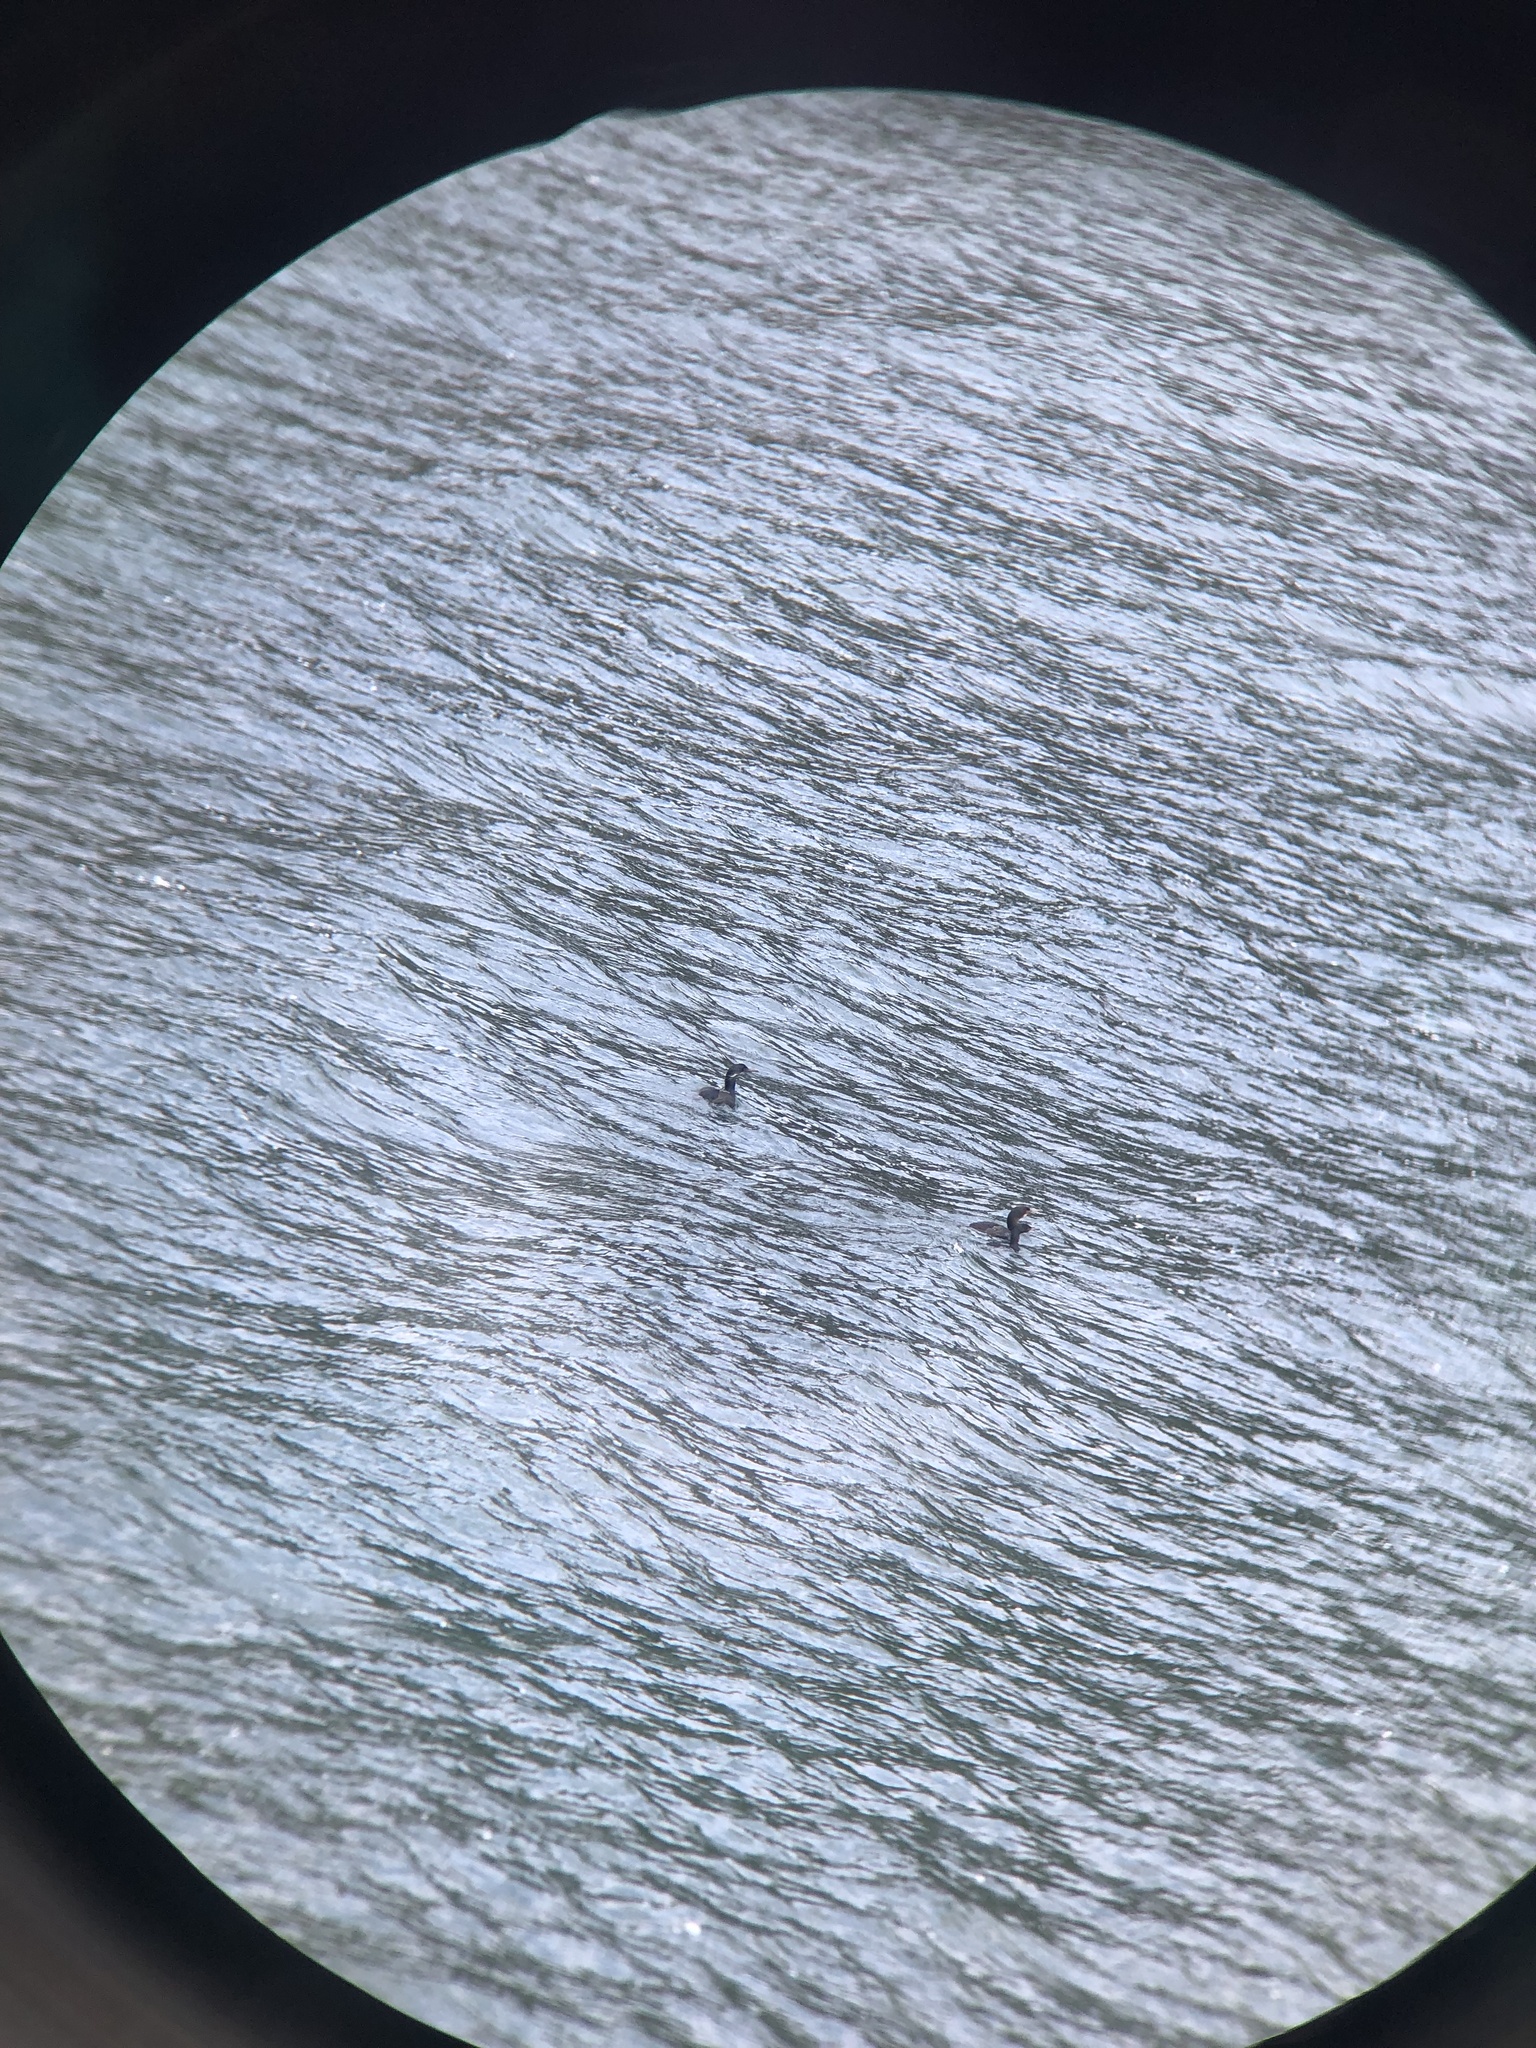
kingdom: Animalia
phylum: Chordata
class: Aves
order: Suliformes
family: Phalacrocoracidae
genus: Urile
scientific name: Urile penicillatus
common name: Brandt's cormorant
